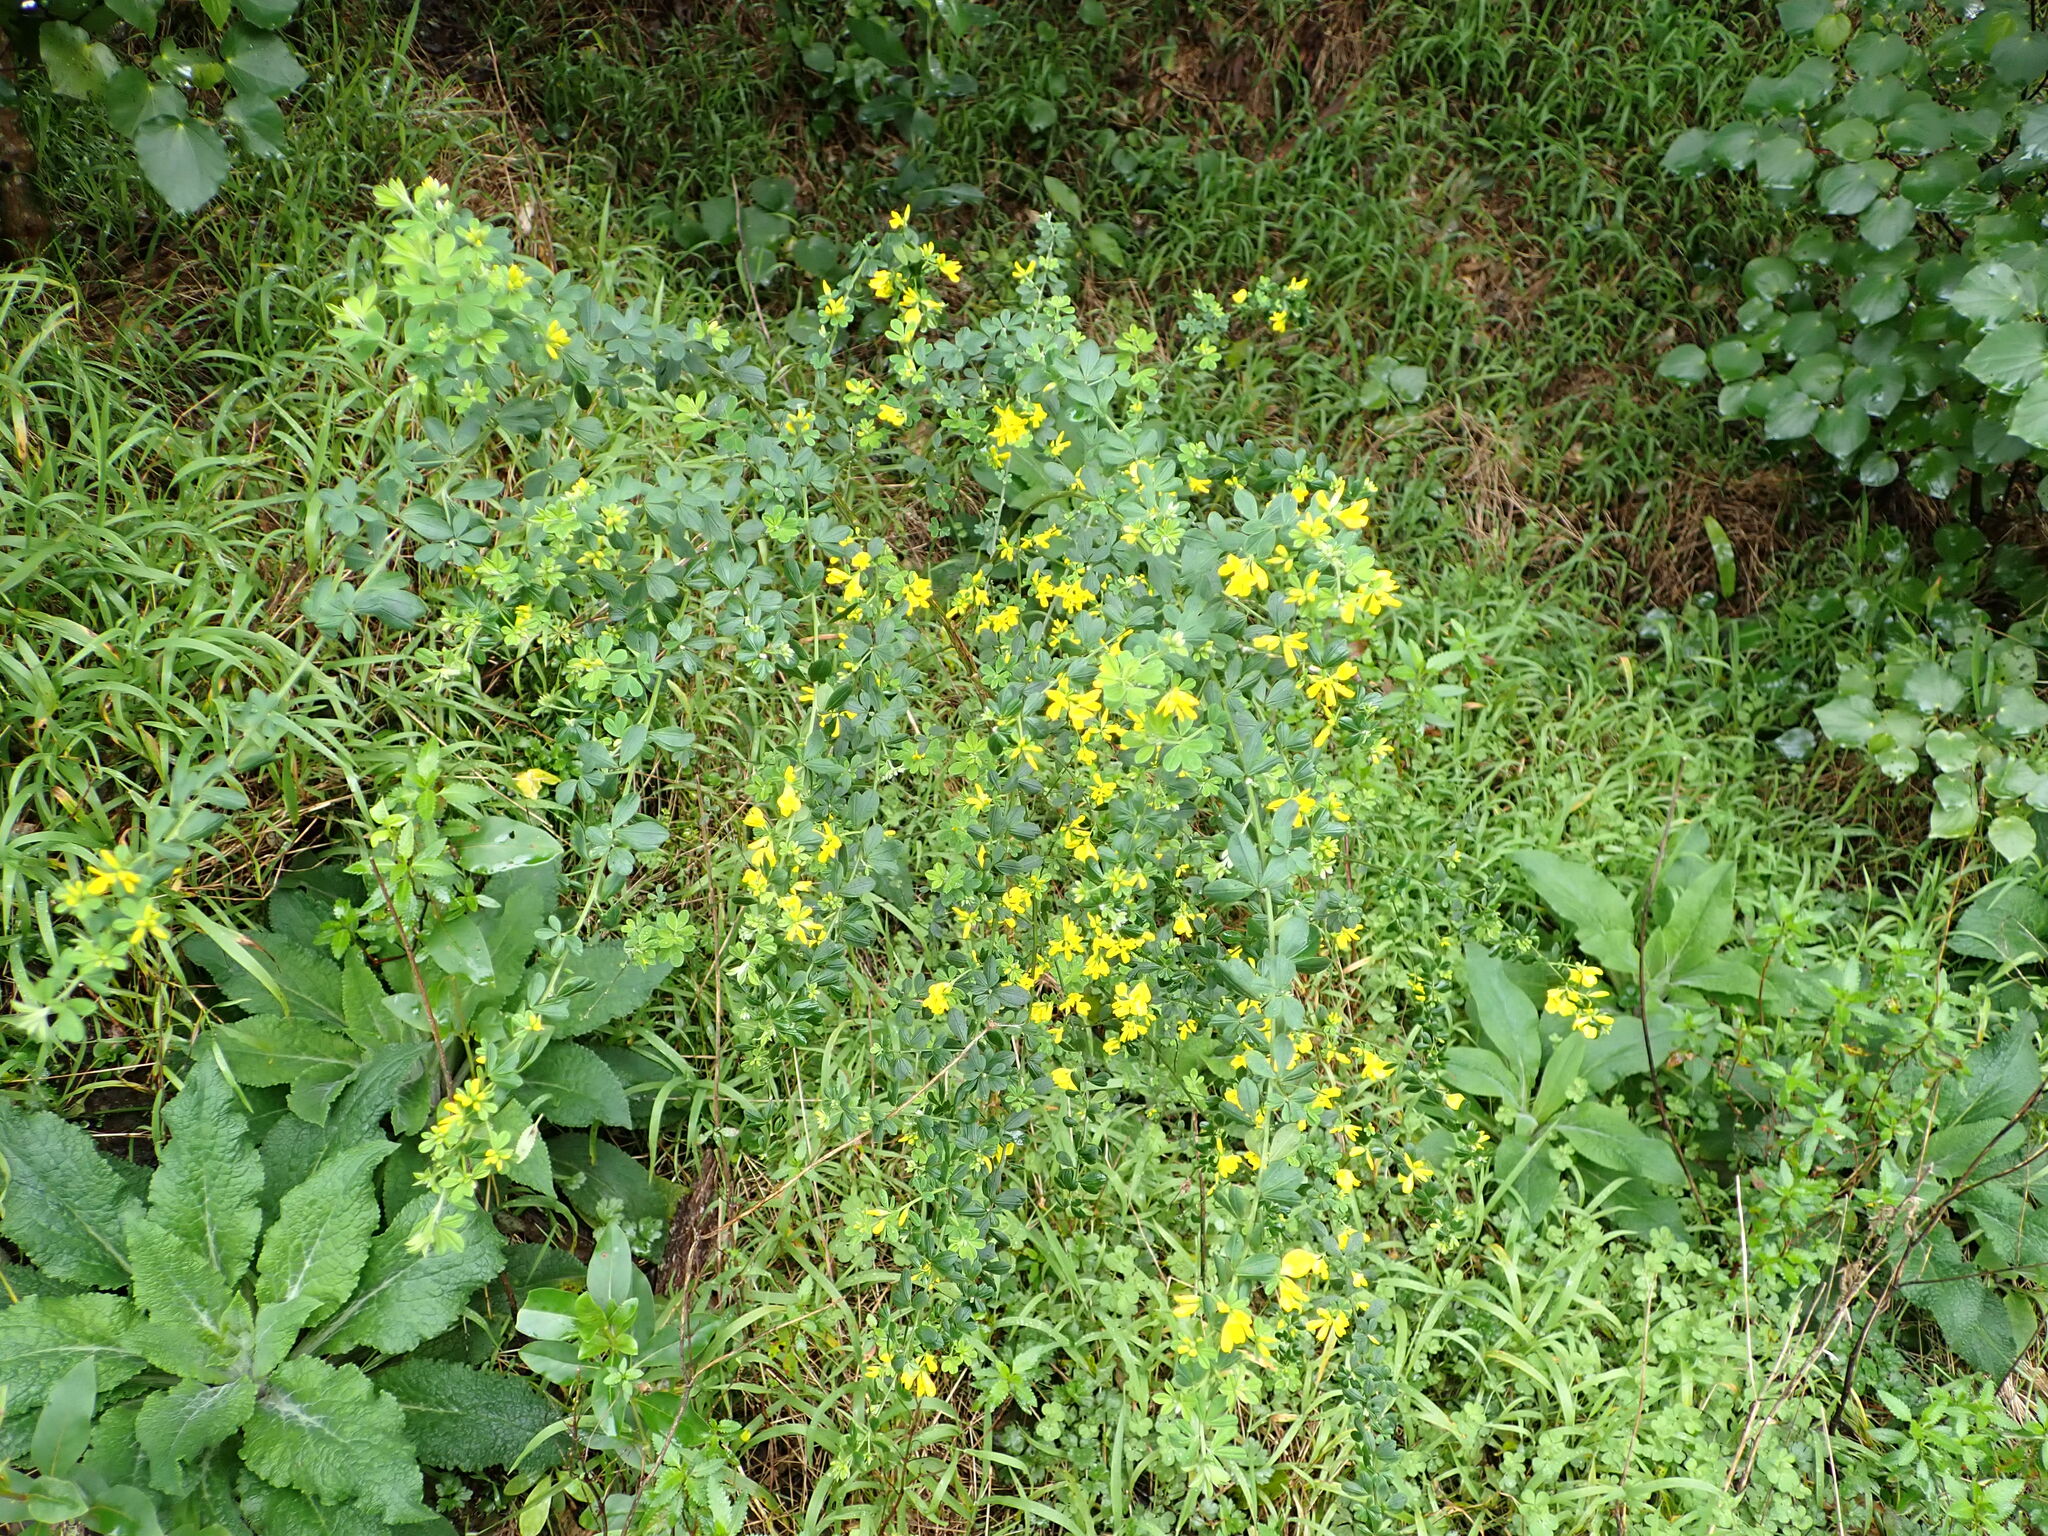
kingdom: Plantae
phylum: Tracheophyta
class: Magnoliopsida
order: Fabales
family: Fabaceae
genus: Genista
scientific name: Genista monspessulana
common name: Montpellier broom
